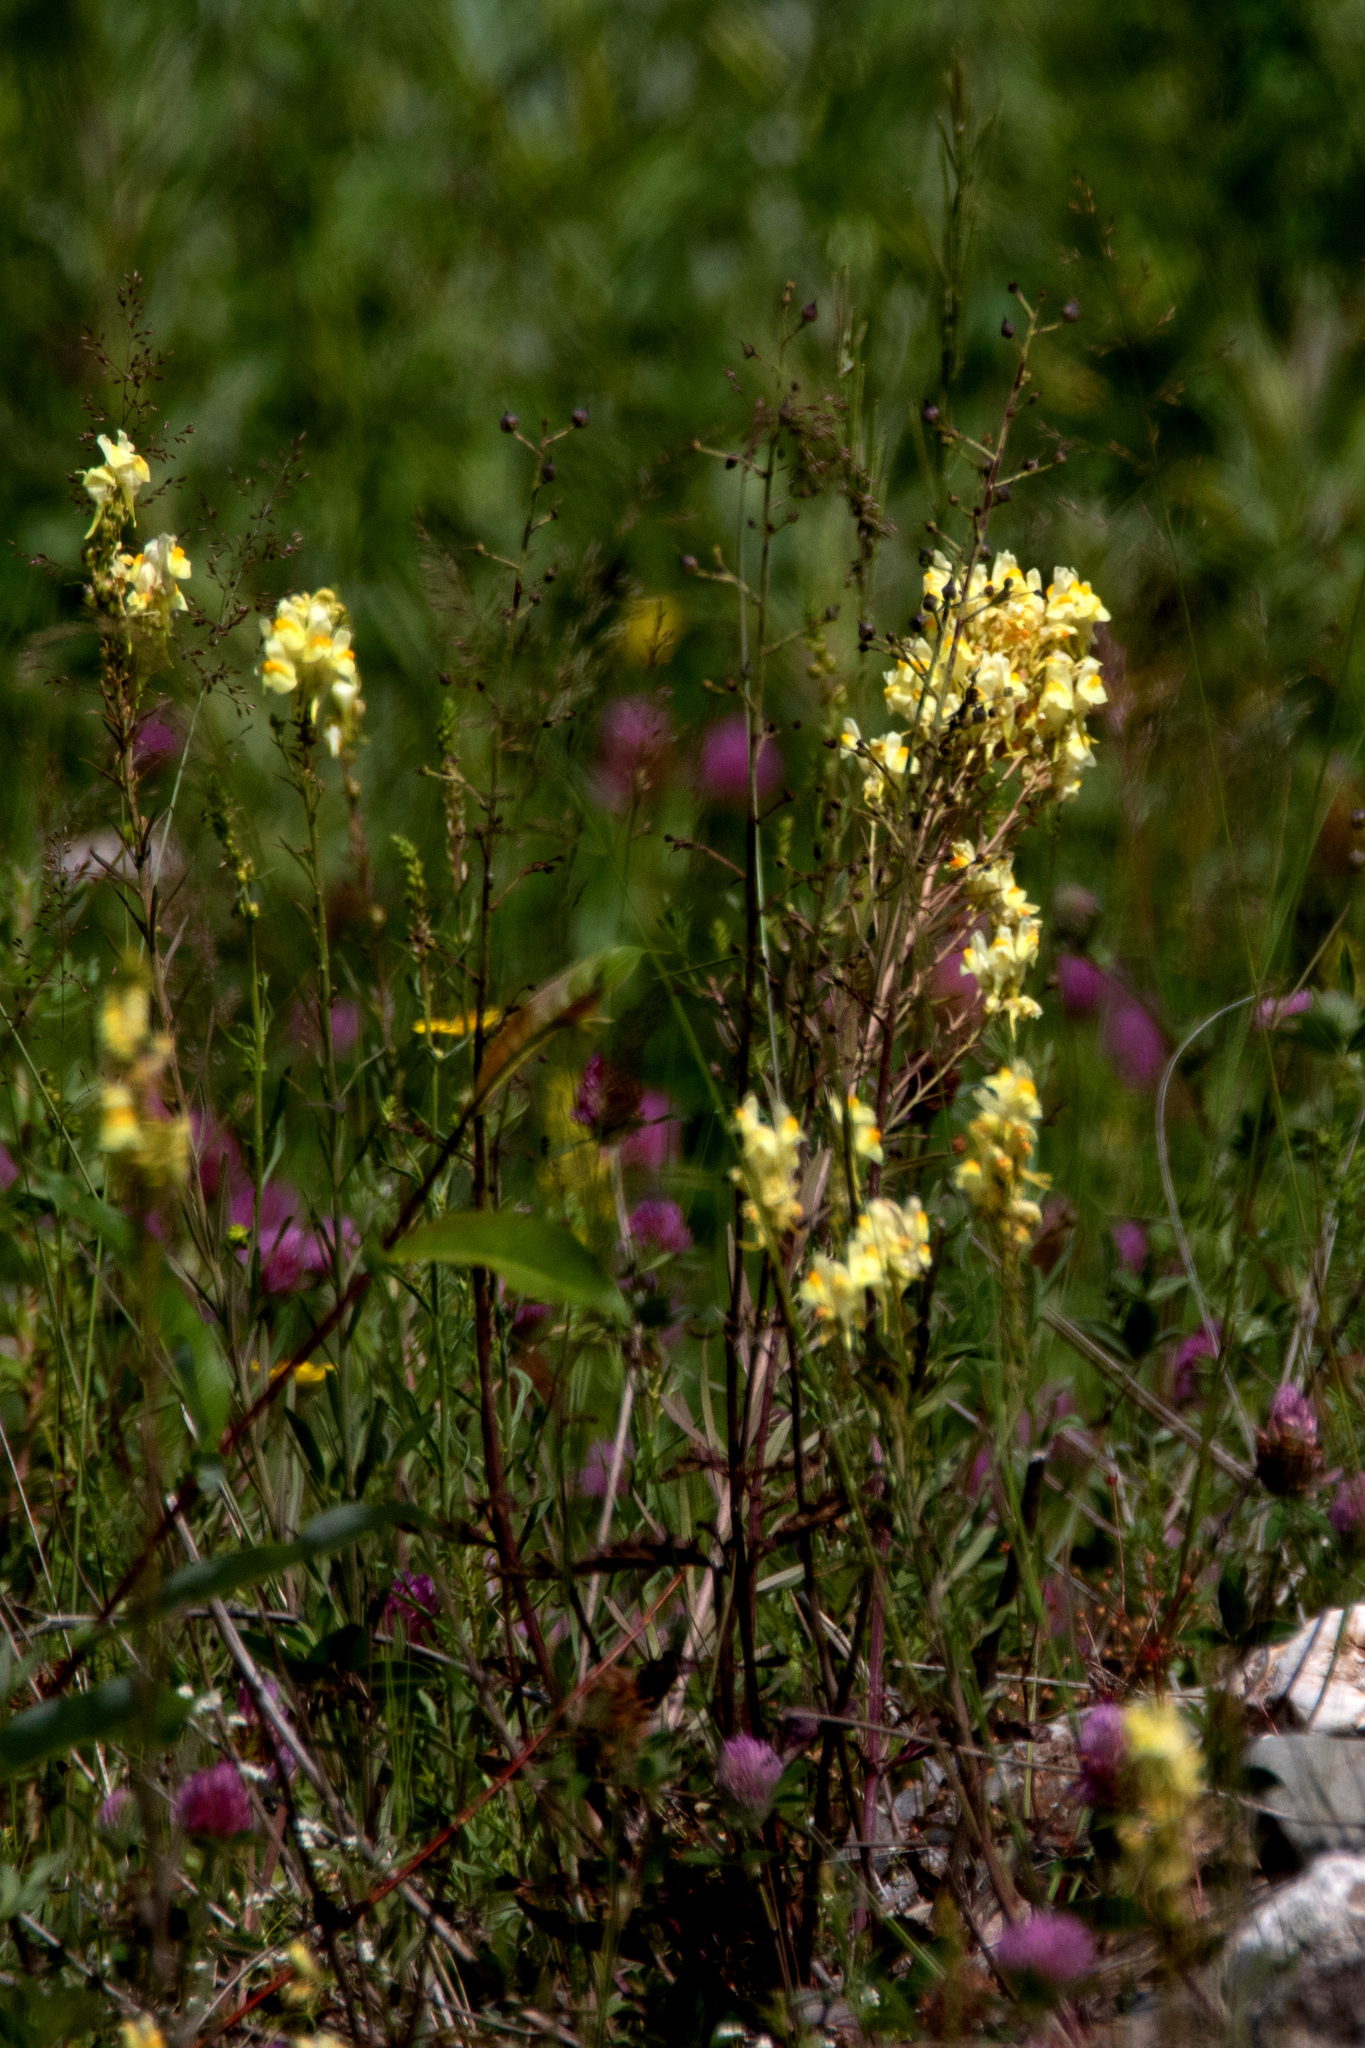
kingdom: Plantae
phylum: Tracheophyta
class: Magnoliopsida
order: Lamiales
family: Plantaginaceae
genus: Linaria
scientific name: Linaria vulgaris
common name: Butter and eggs
